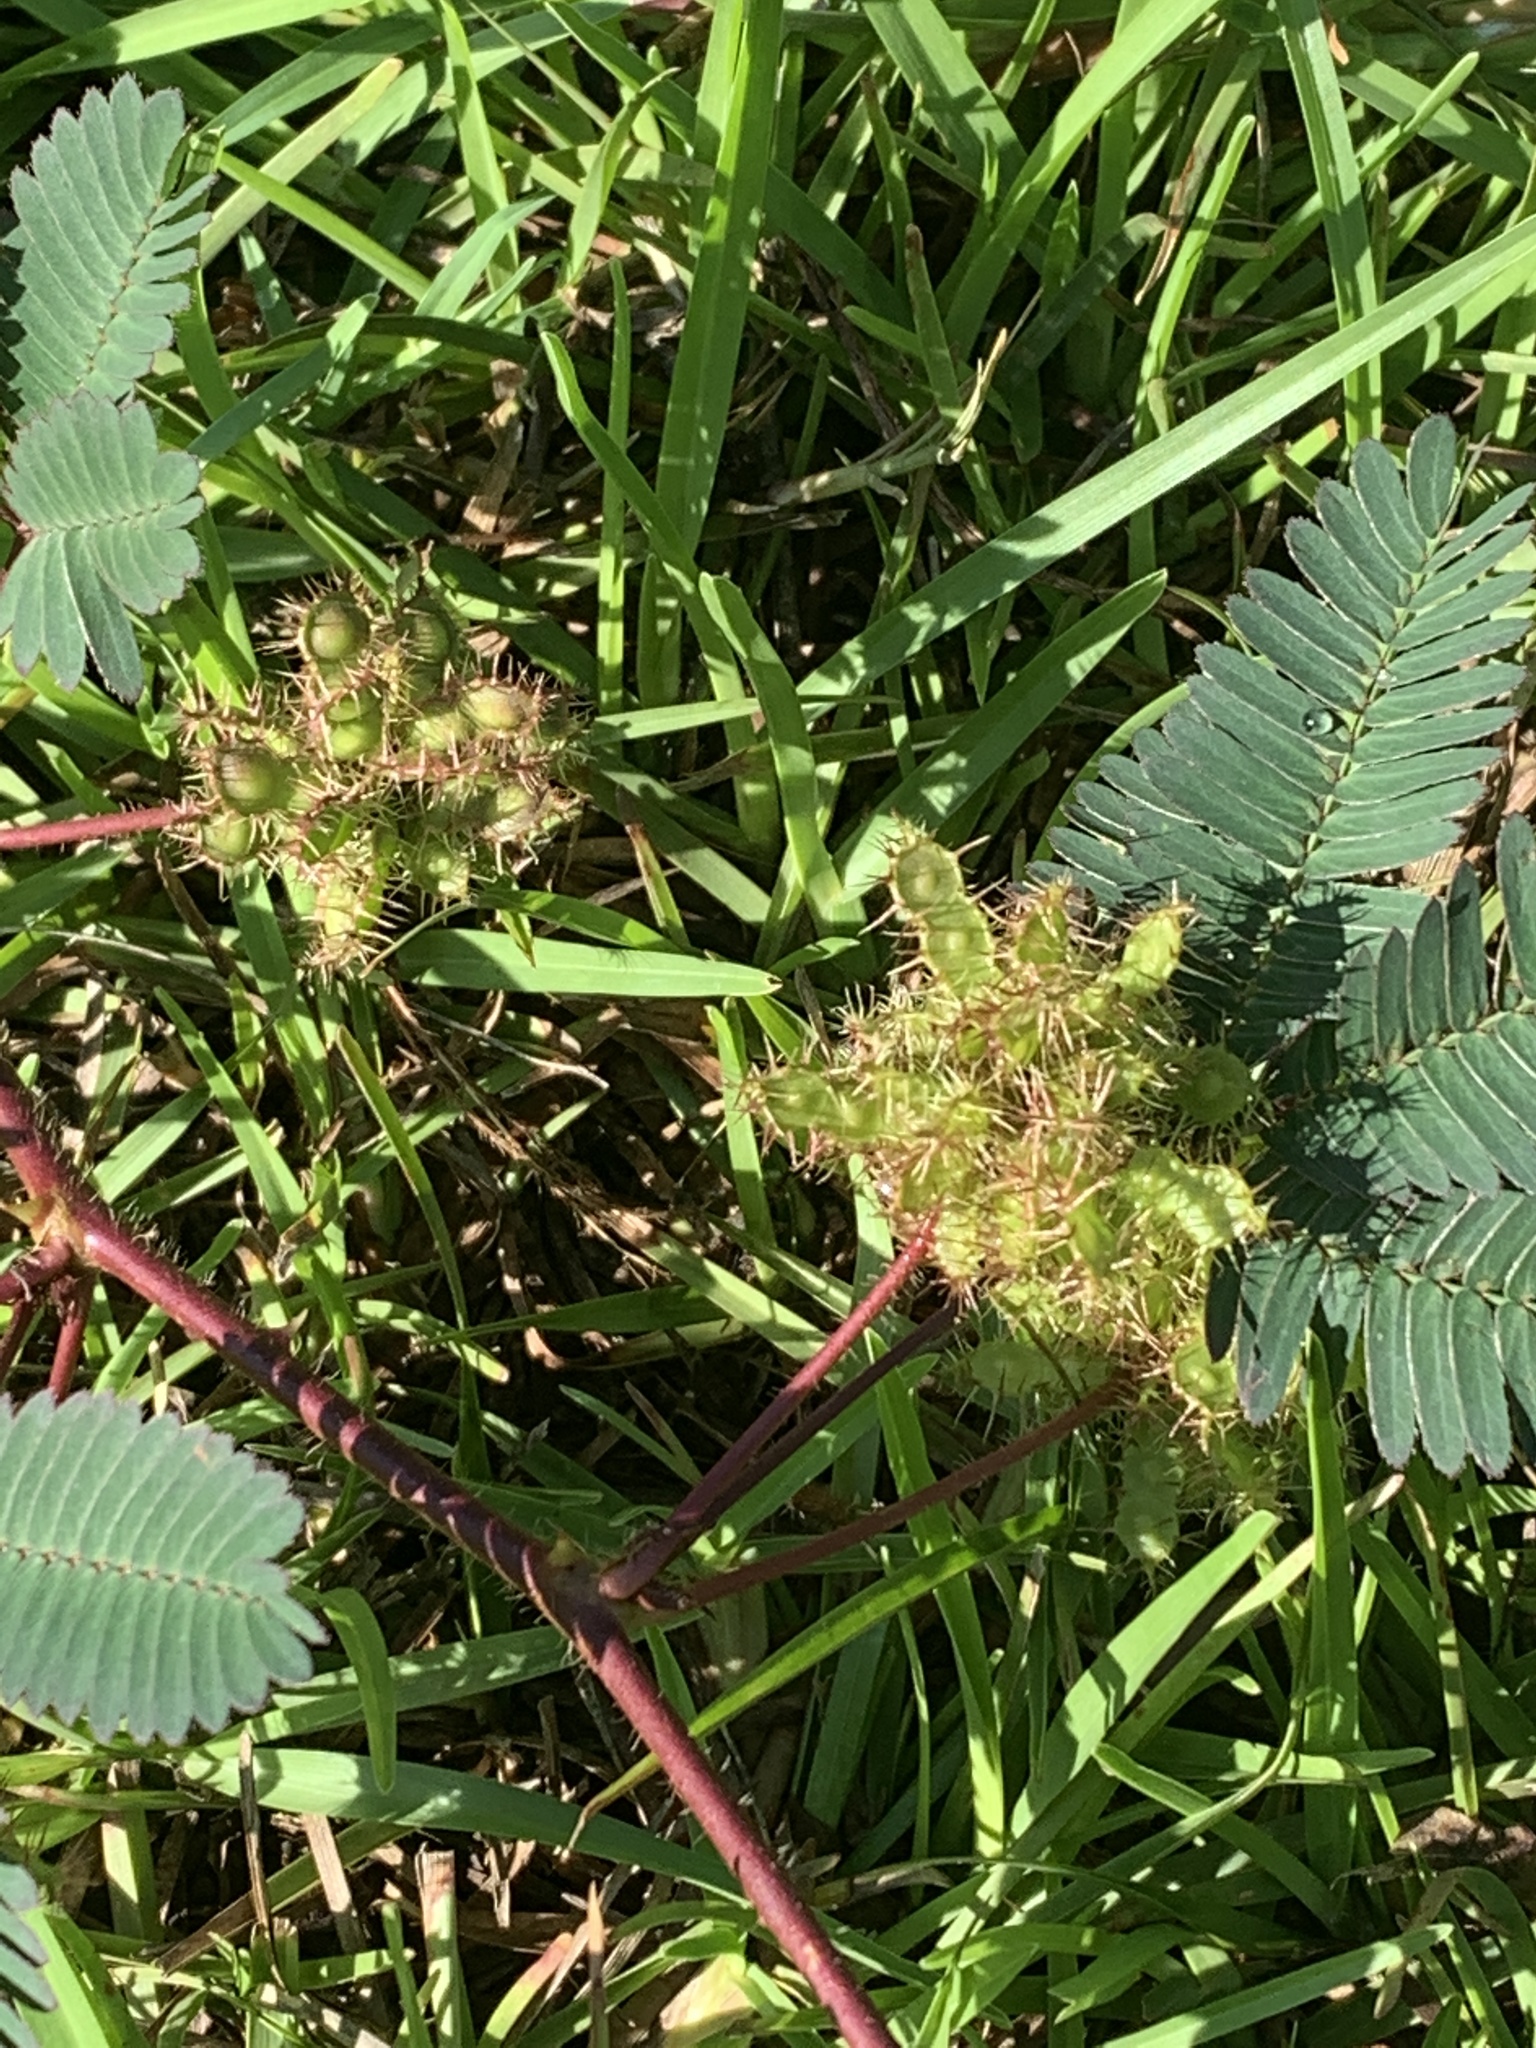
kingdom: Plantae
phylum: Tracheophyta
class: Magnoliopsida
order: Fabales
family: Fabaceae
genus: Mimosa
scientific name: Mimosa pudica
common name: Sensitive plant
